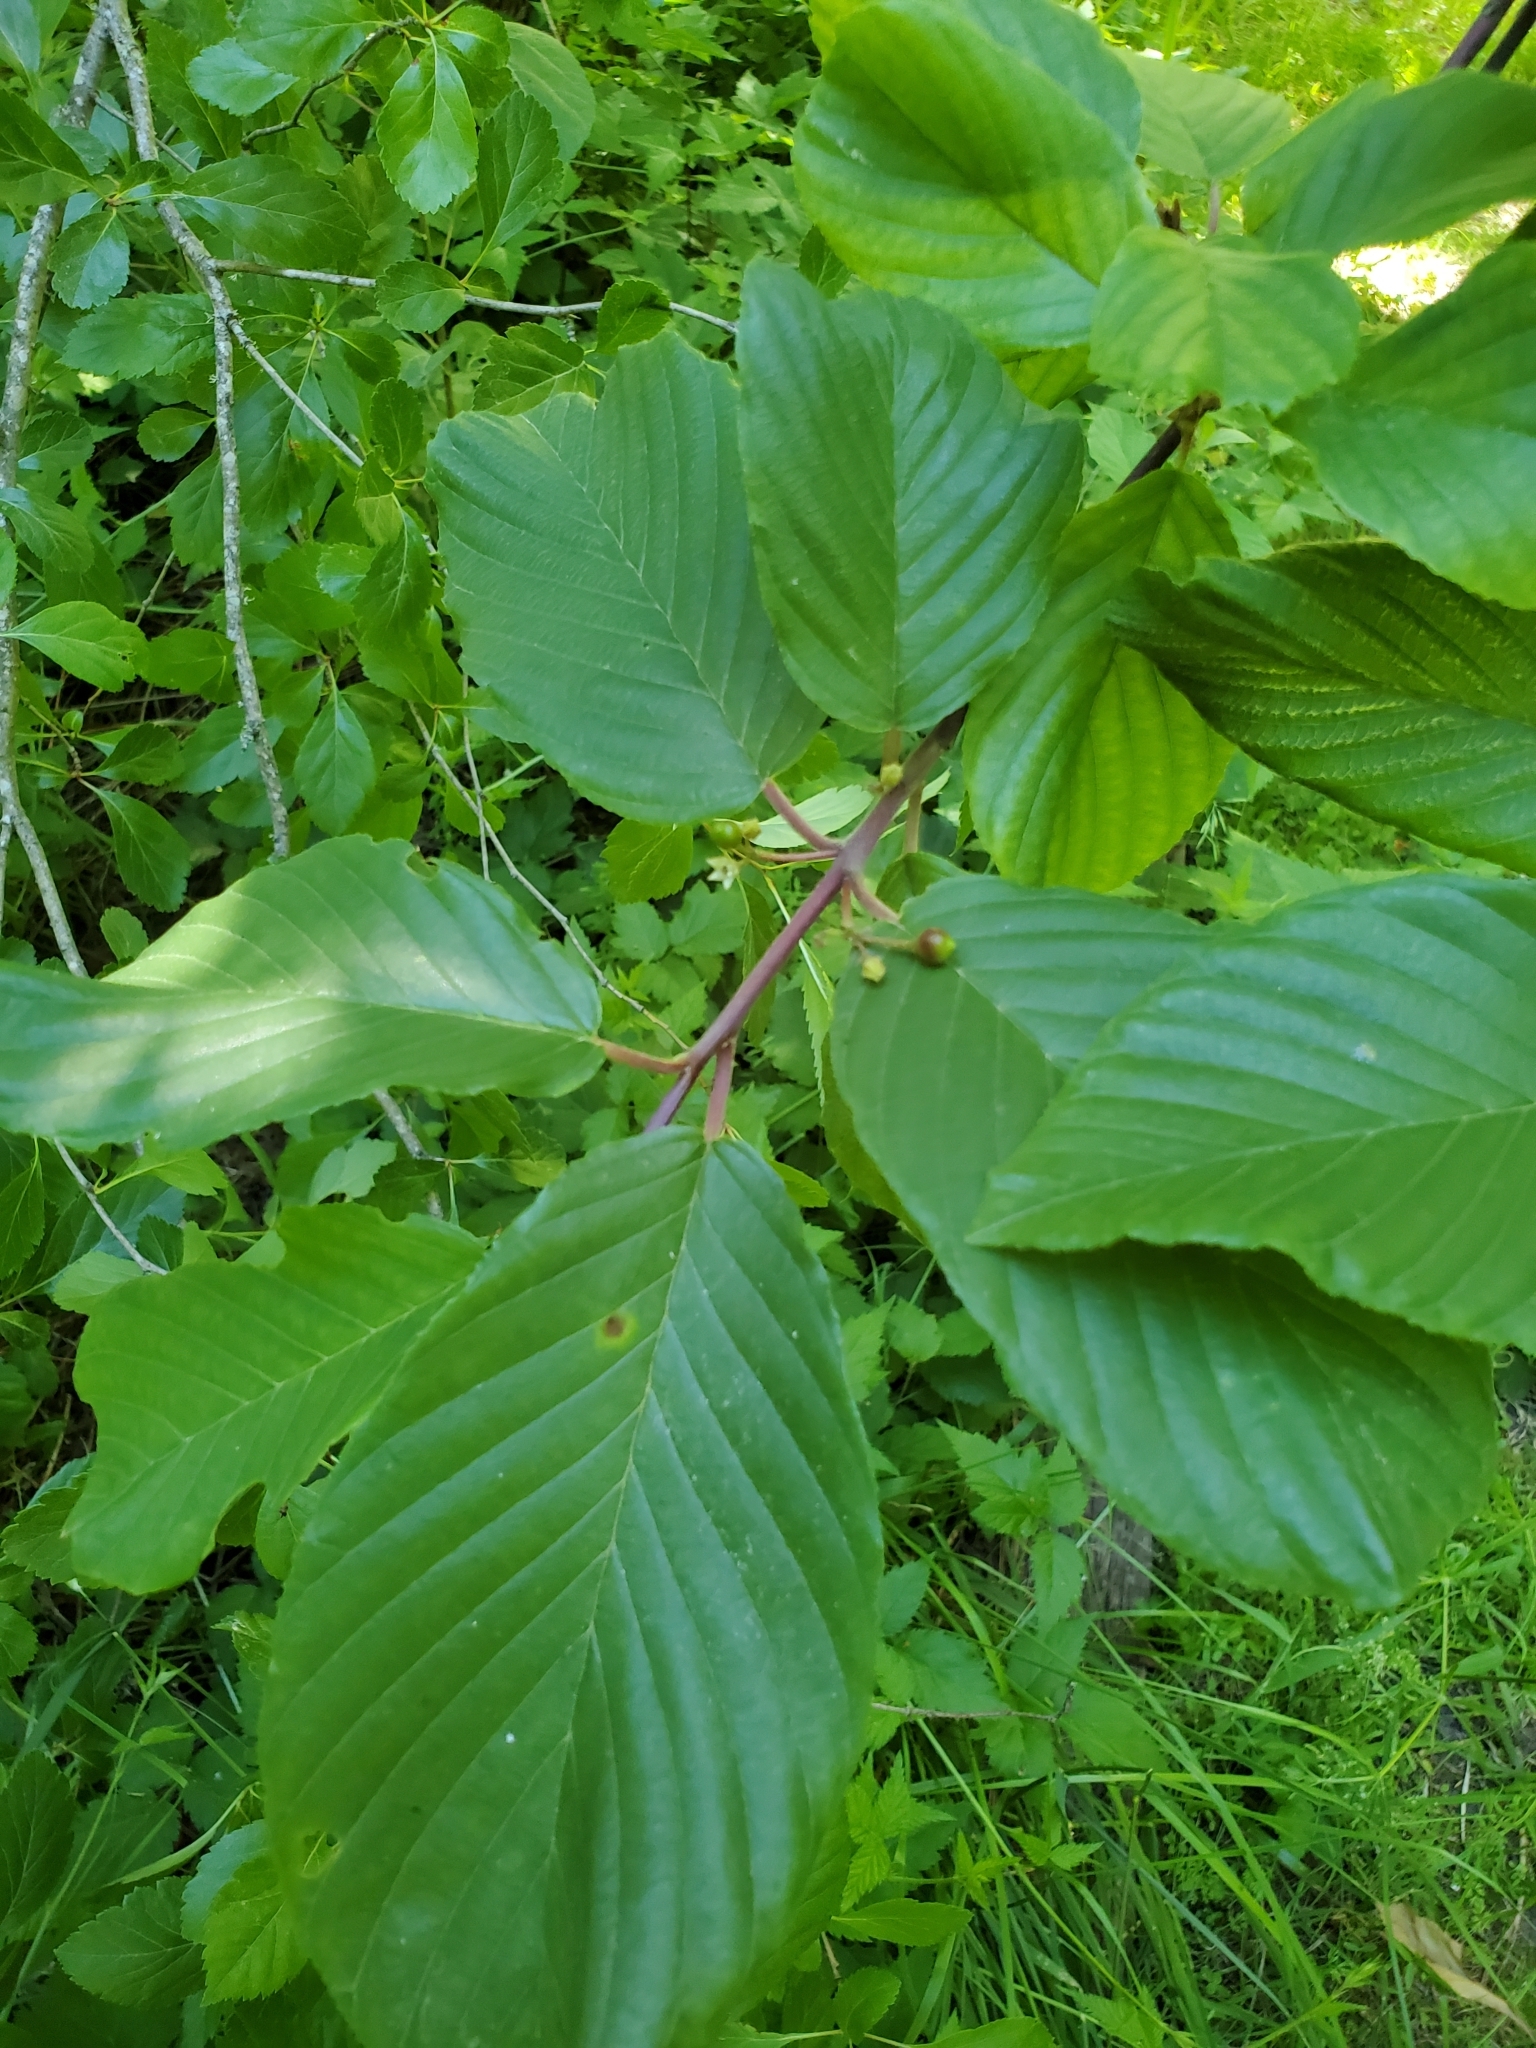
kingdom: Plantae
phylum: Tracheophyta
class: Magnoliopsida
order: Rosales
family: Rhamnaceae
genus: Frangula
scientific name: Frangula purshiana
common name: Cascara buckthorn
